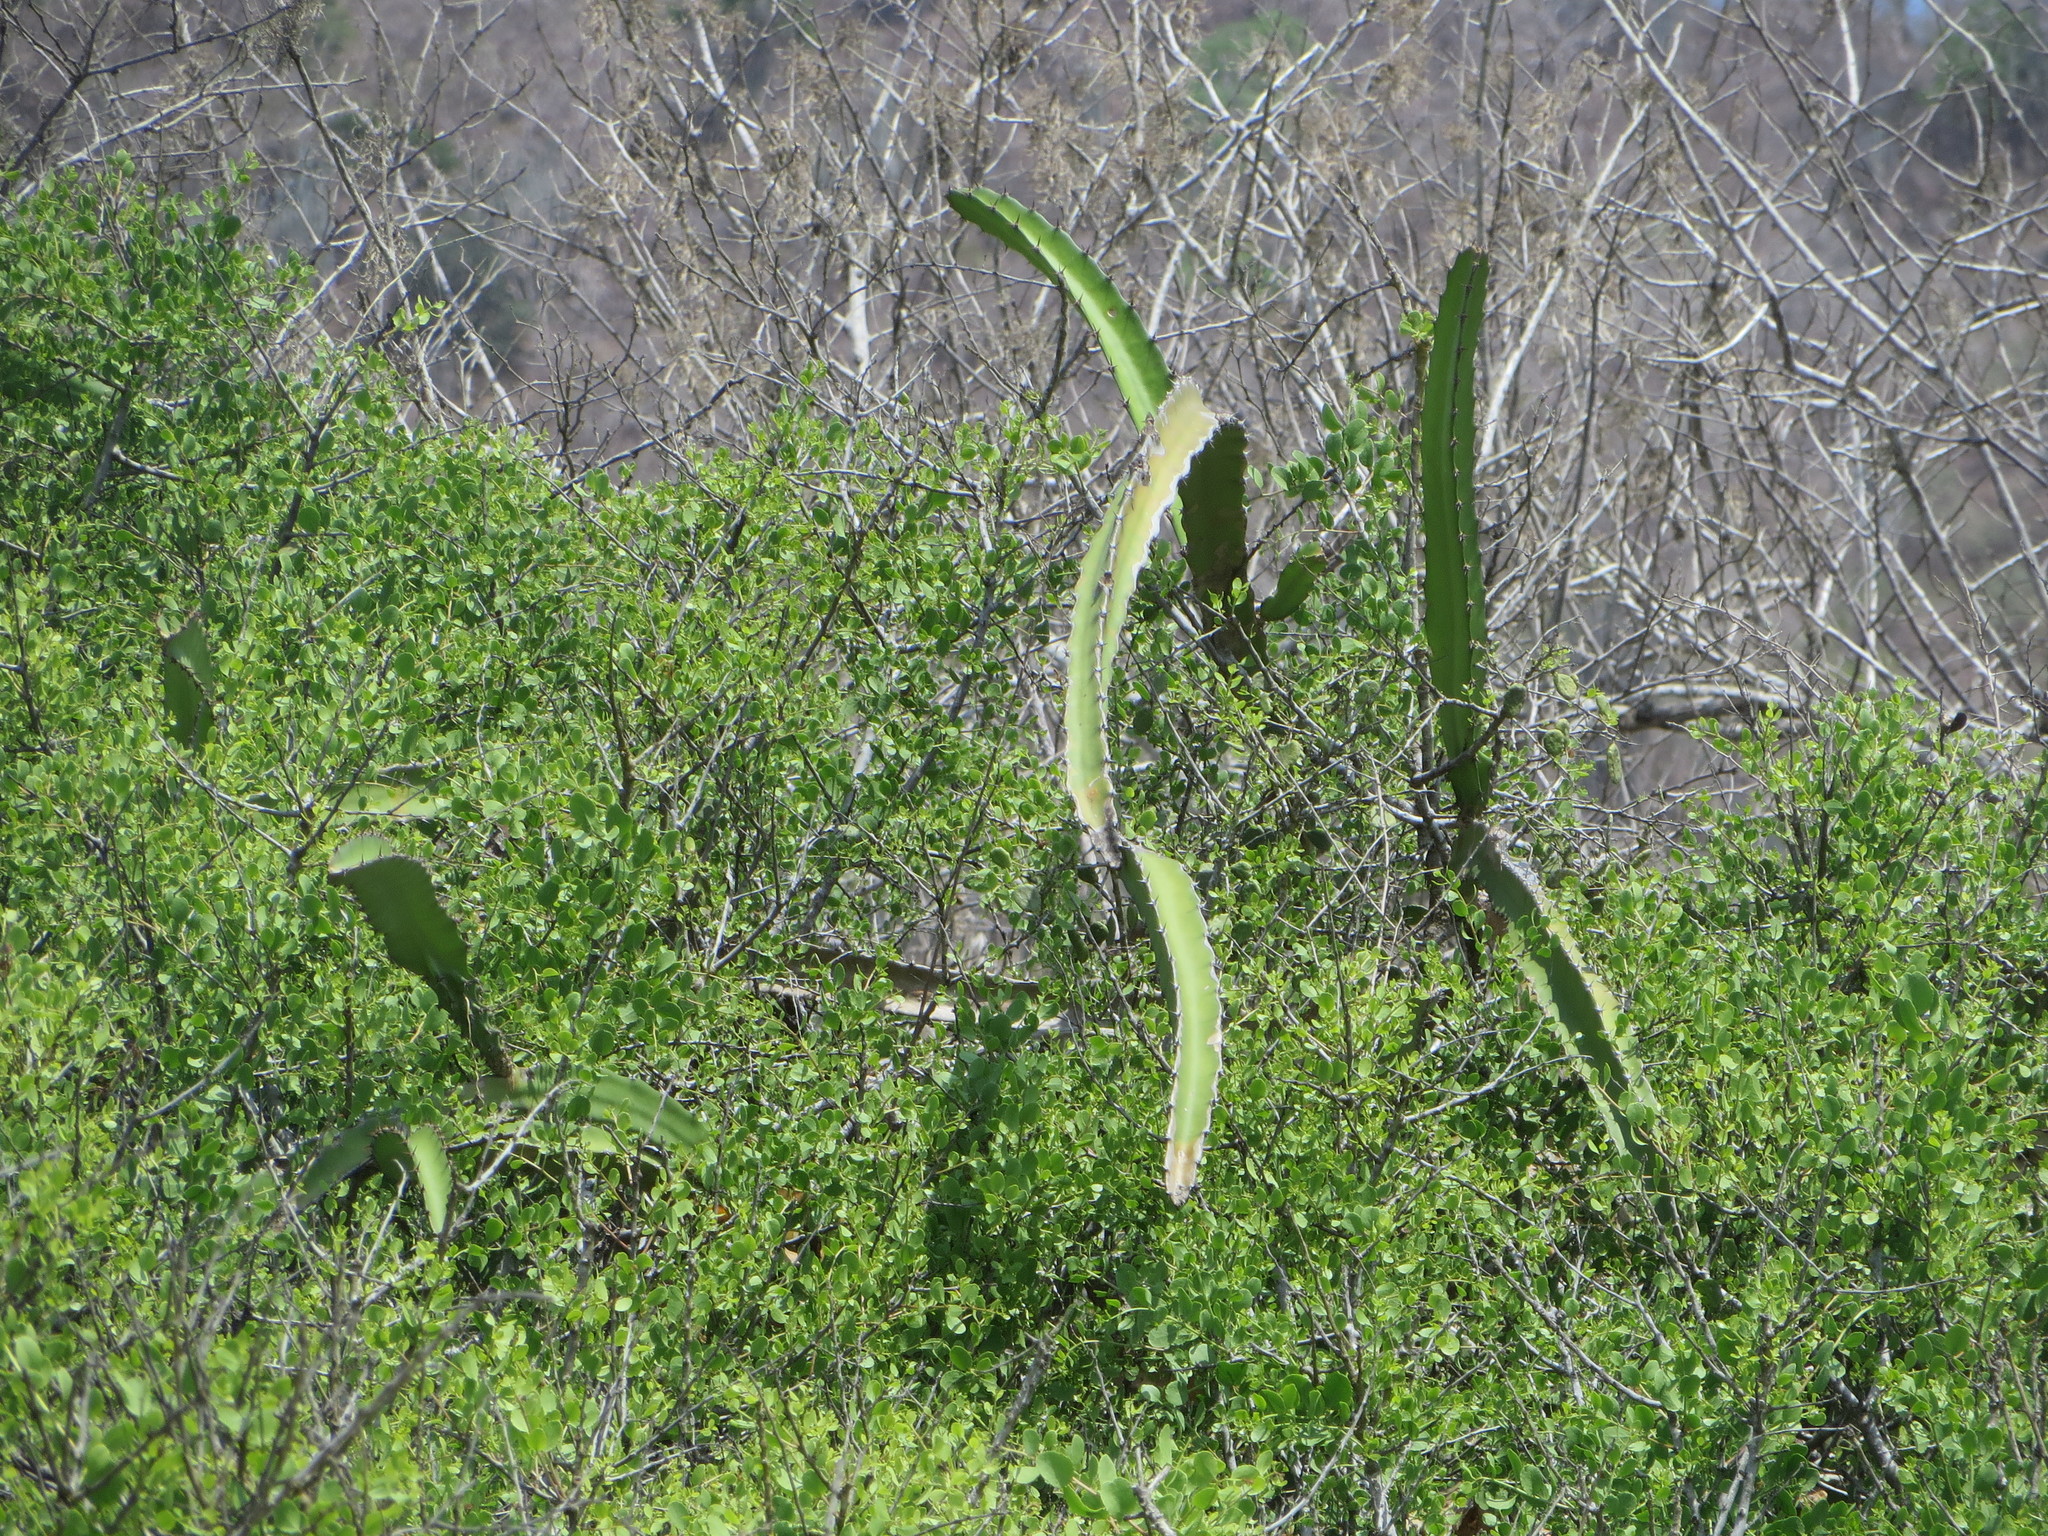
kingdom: Plantae
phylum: Tracheophyta
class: Magnoliopsida
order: Caryophyllales
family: Cactaceae
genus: Selenicereus
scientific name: Selenicereus monacanthus
